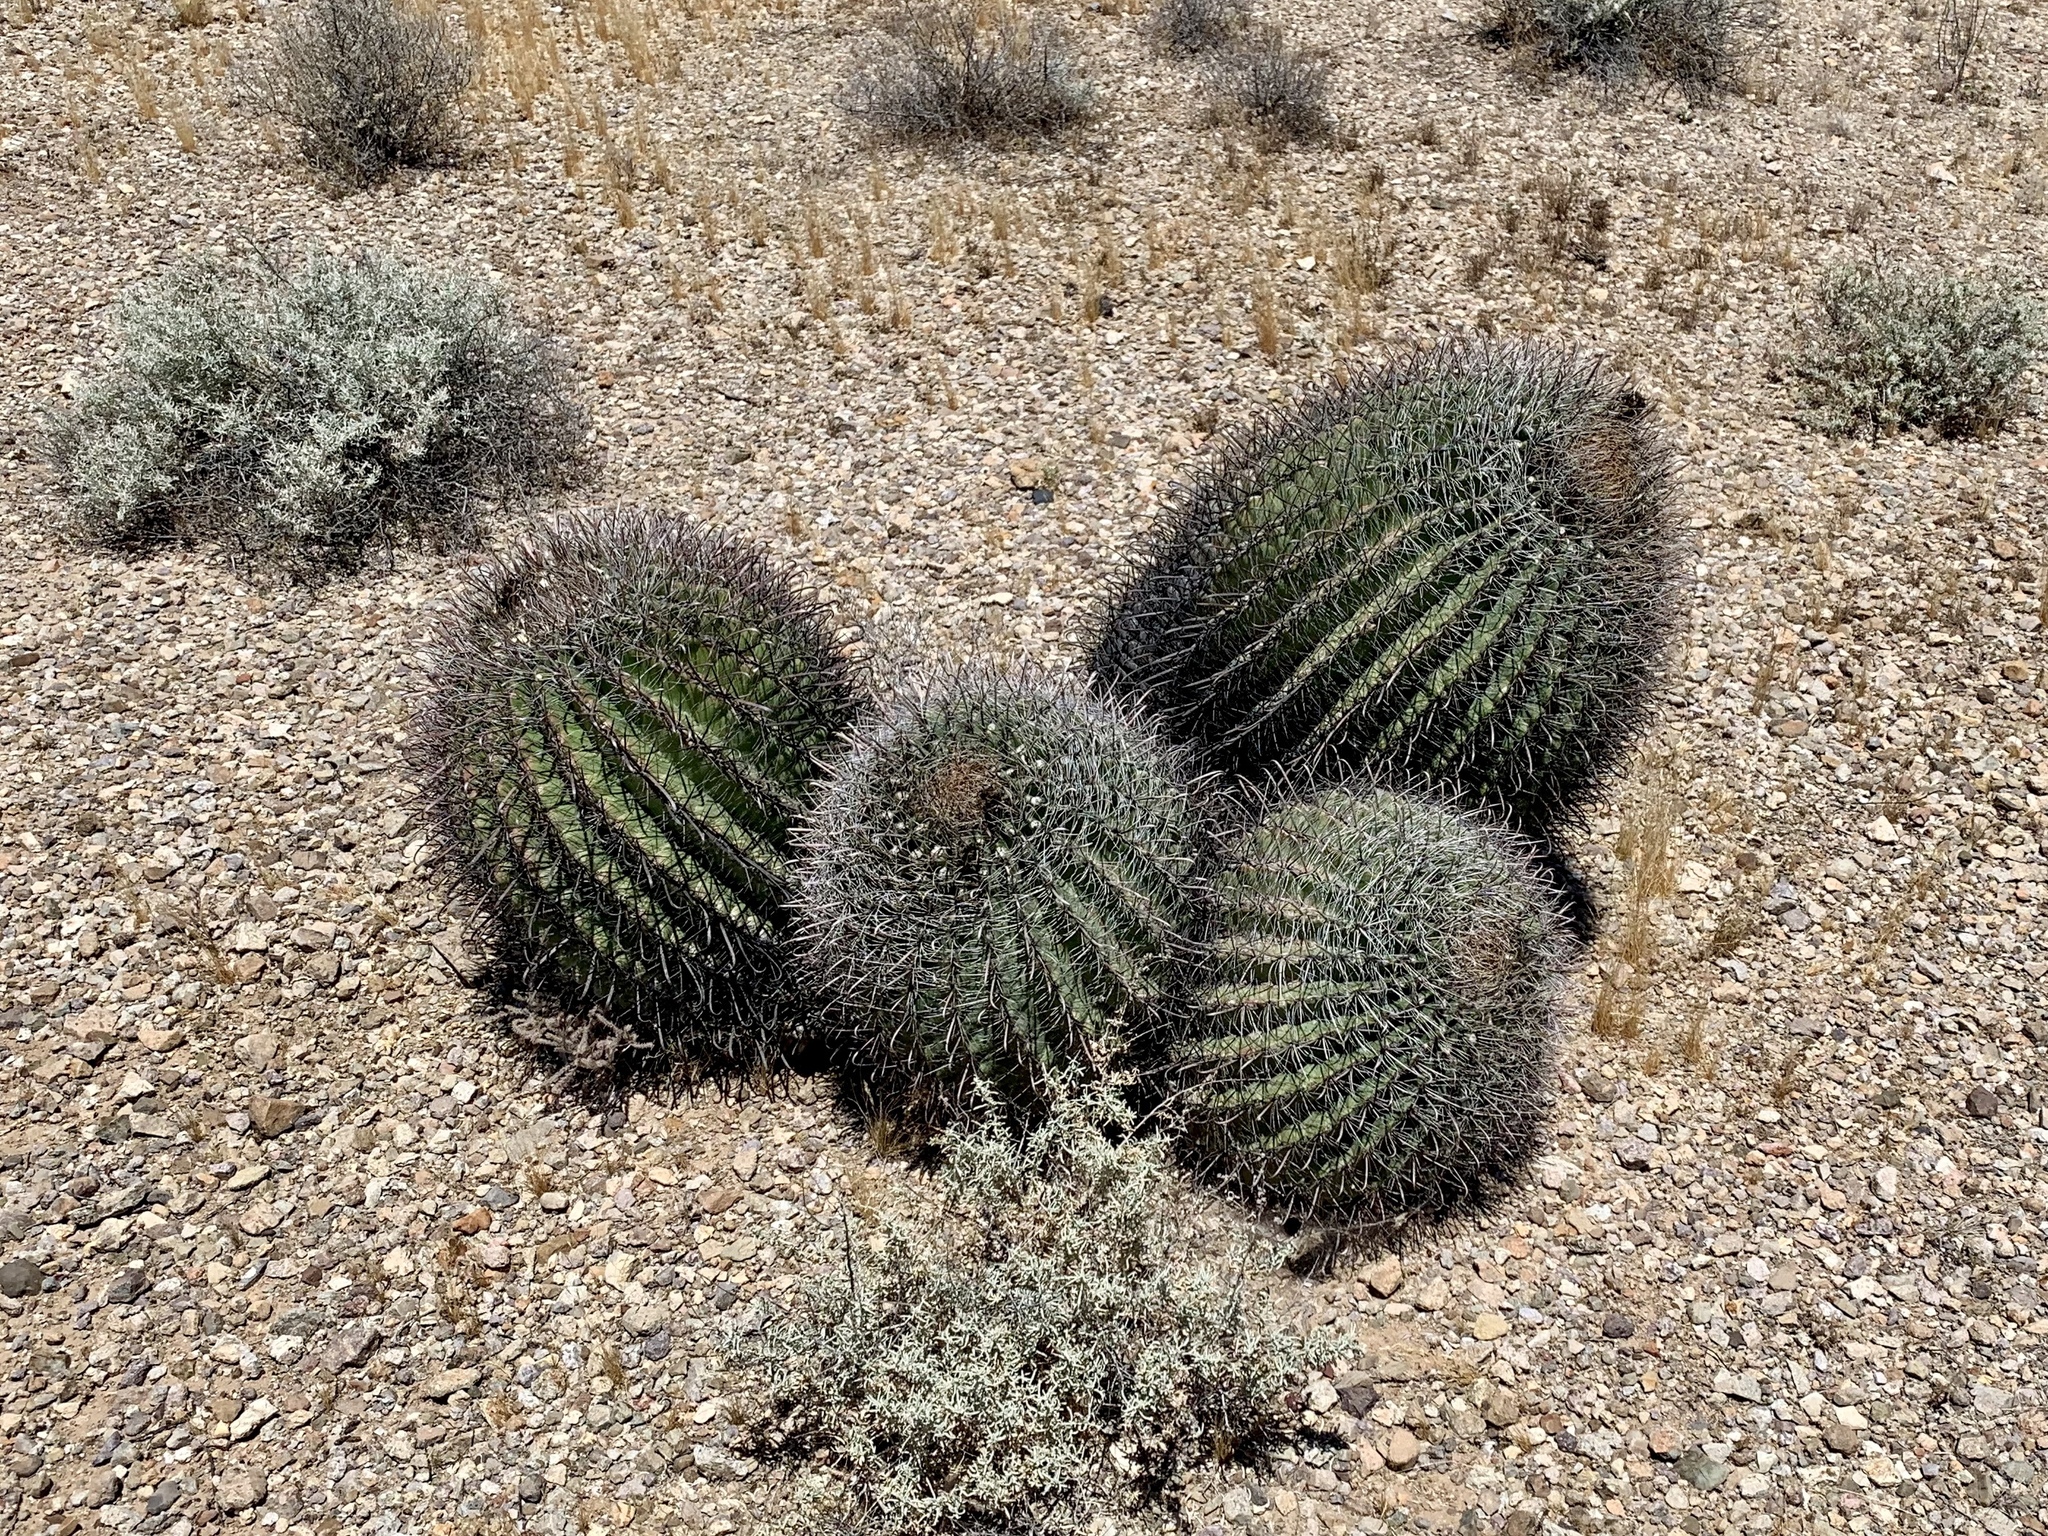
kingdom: Plantae
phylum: Tracheophyta
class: Magnoliopsida
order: Caryophyllales
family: Cactaceae
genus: Ferocactus
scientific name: Ferocactus wislizeni
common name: Candy barrel cactus
